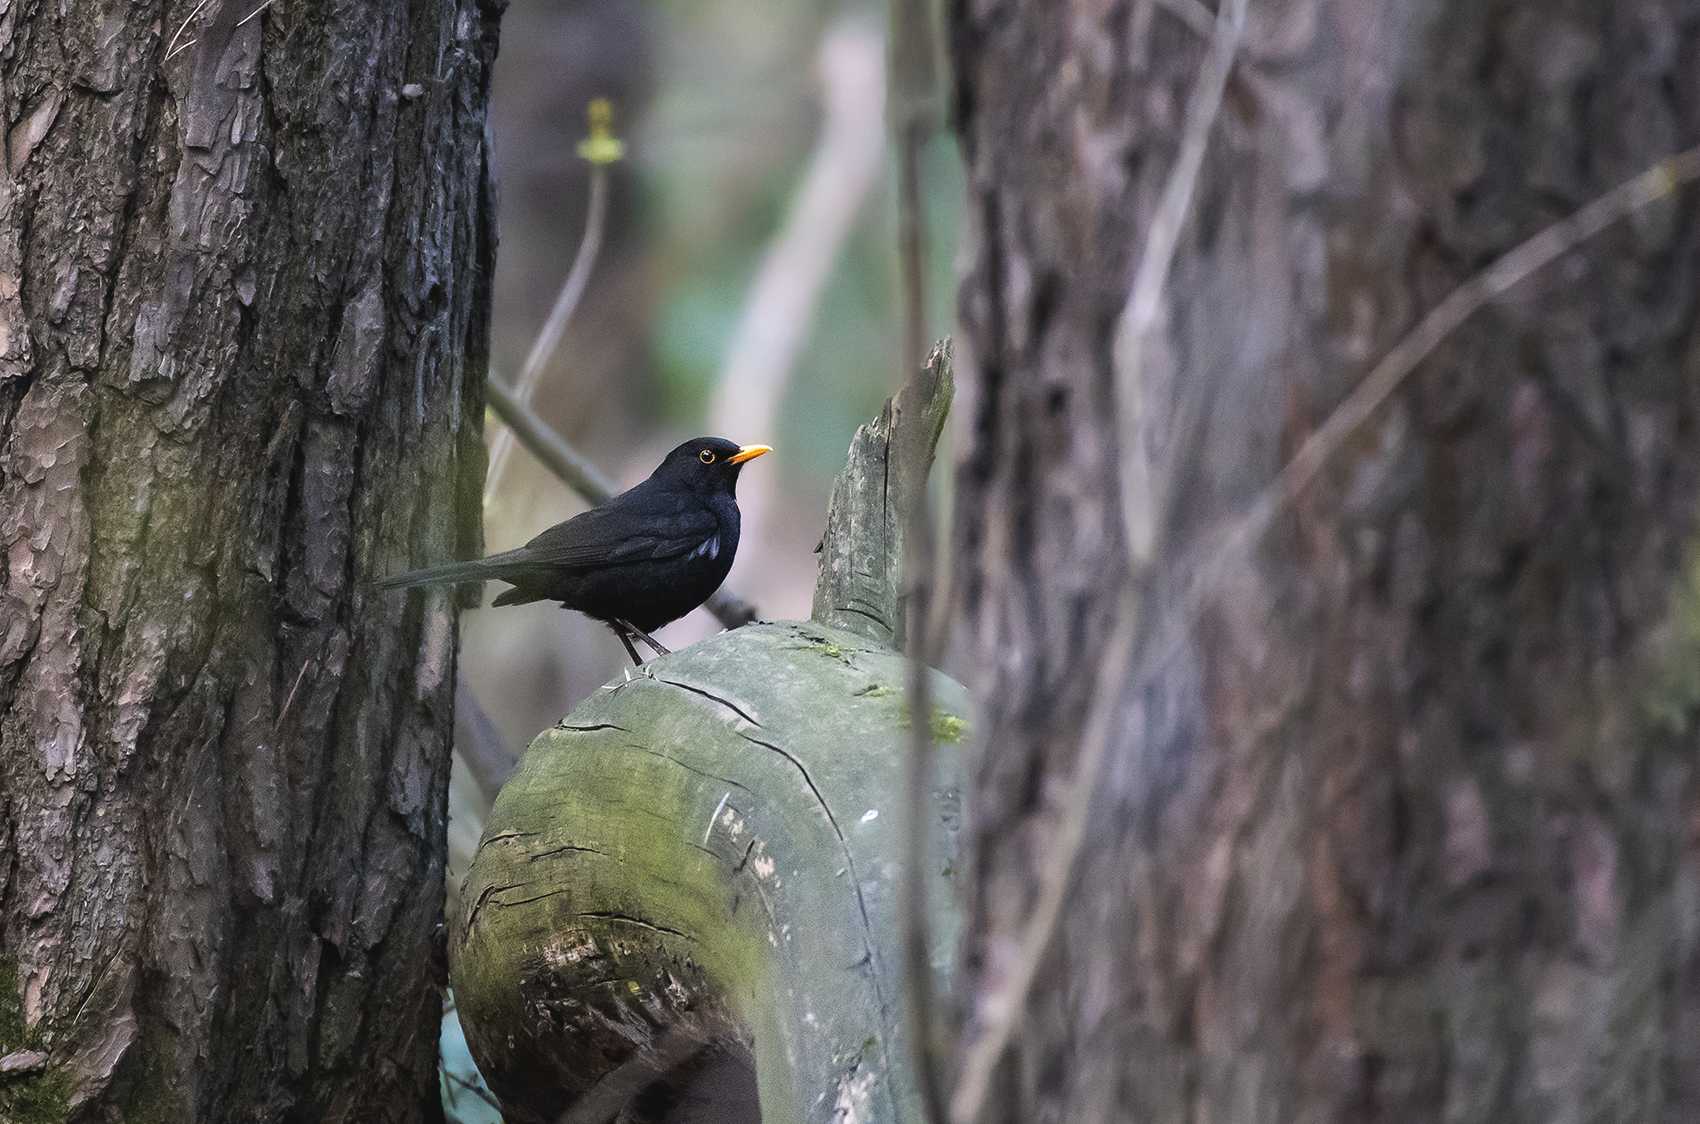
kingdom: Animalia
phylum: Chordata
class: Aves
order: Passeriformes
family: Turdidae
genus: Turdus
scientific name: Turdus merula
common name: Common blackbird
